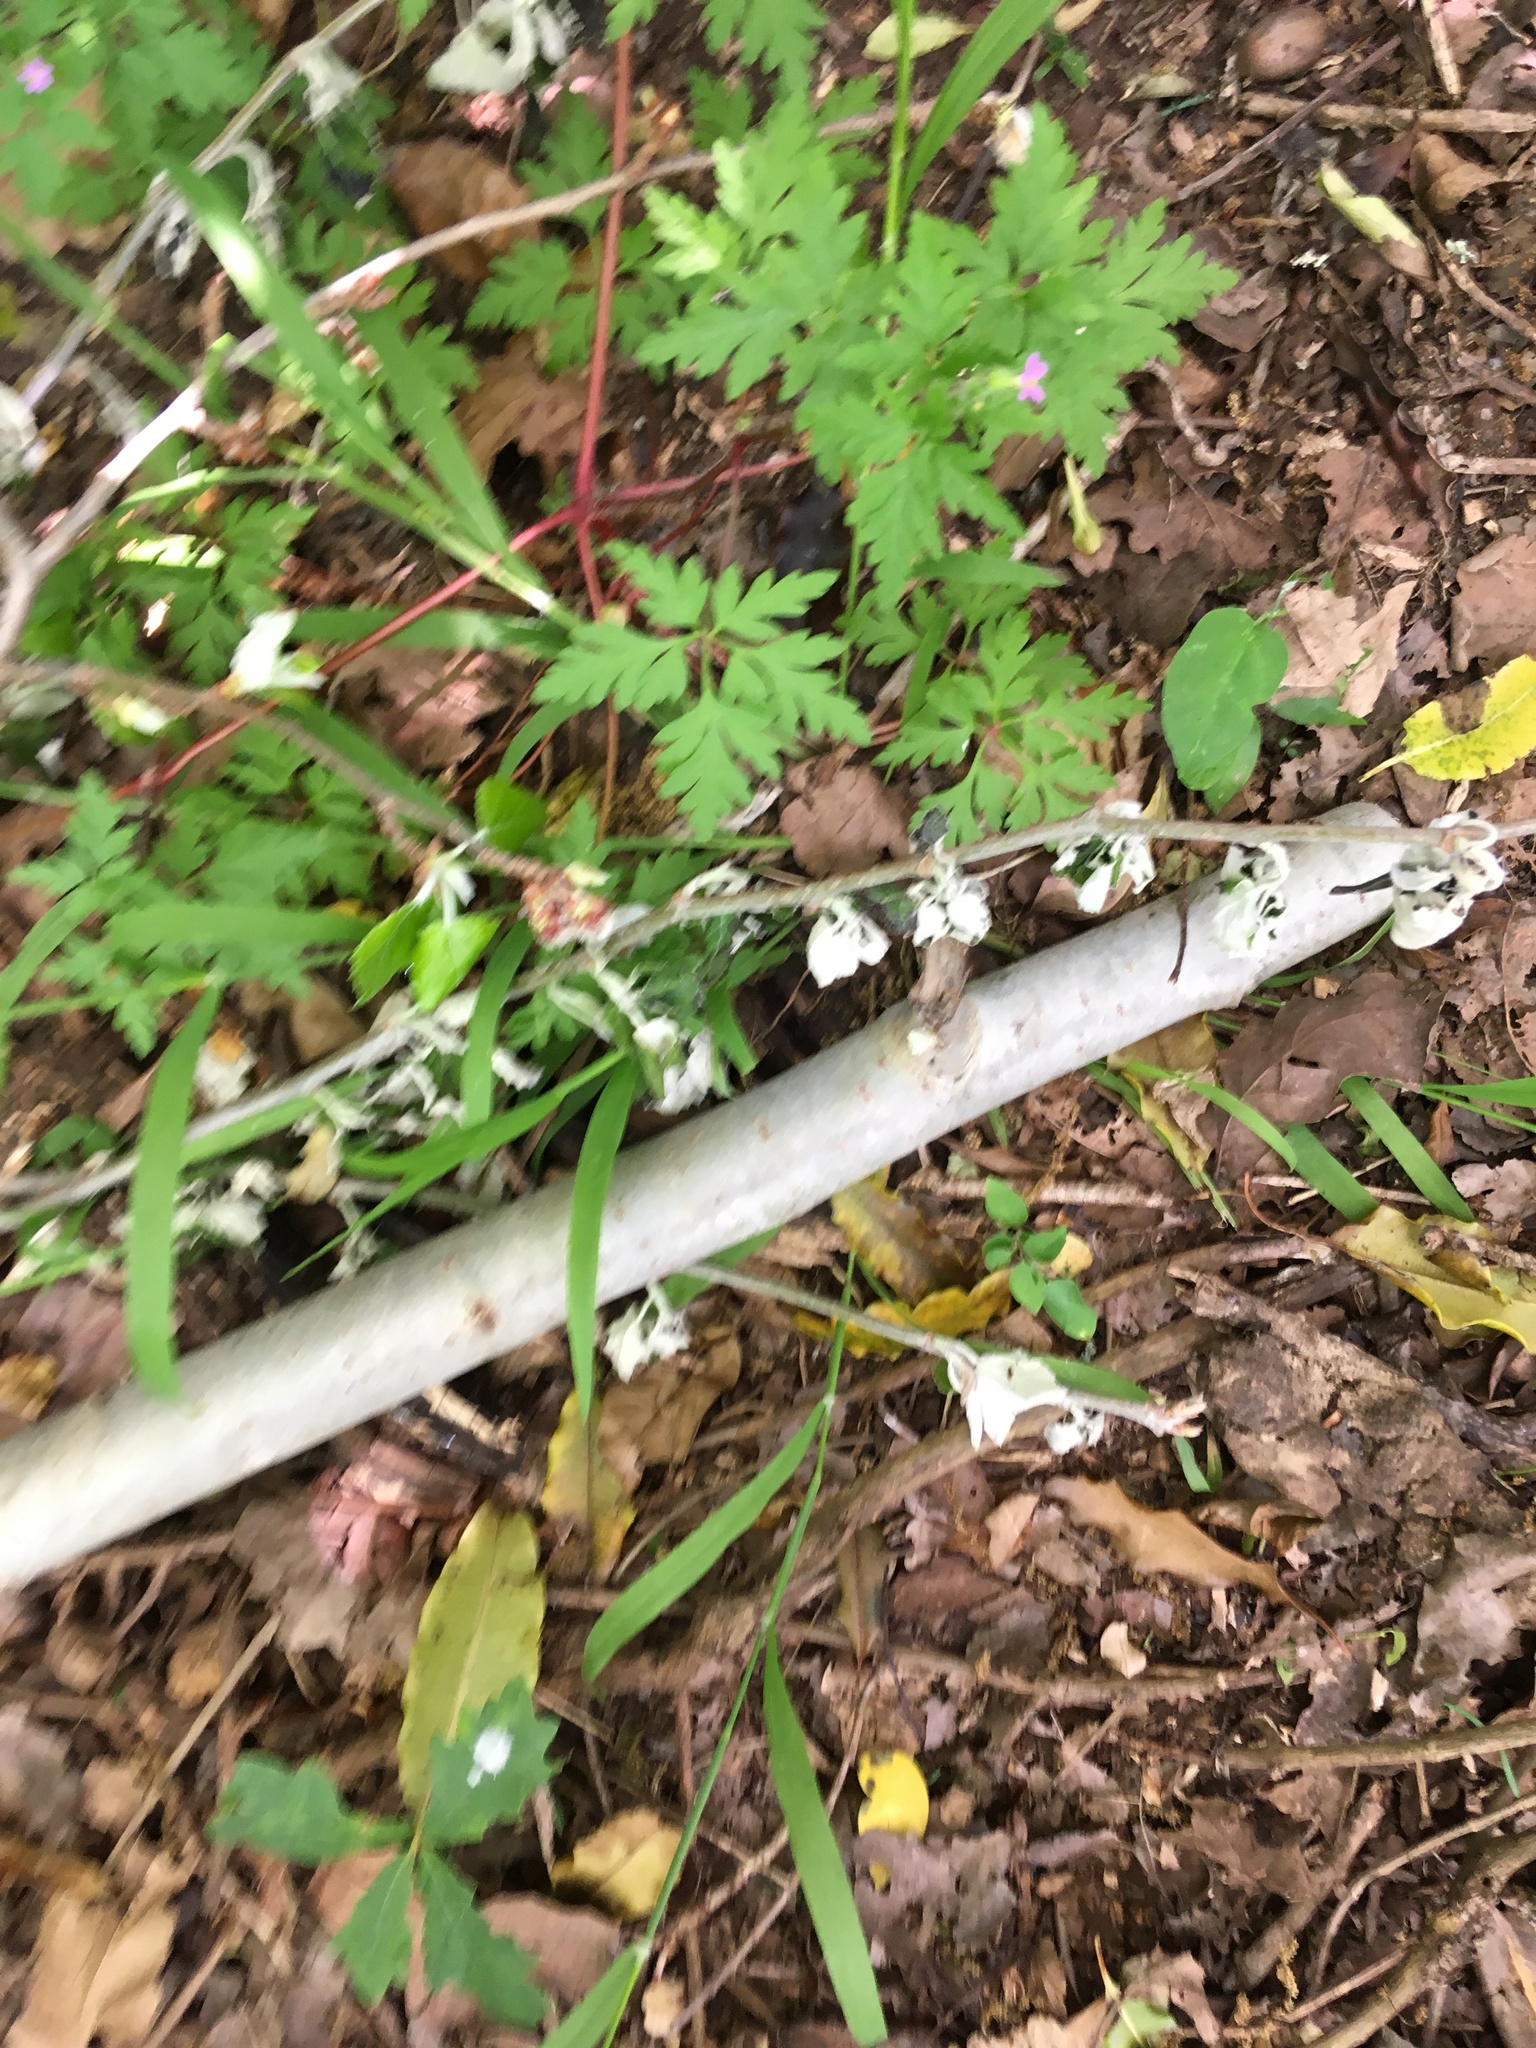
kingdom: Plantae
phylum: Tracheophyta
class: Magnoliopsida
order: Gentianales
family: Apocynaceae
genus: Araujia
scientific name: Araujia sericifera
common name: White bladderflower
